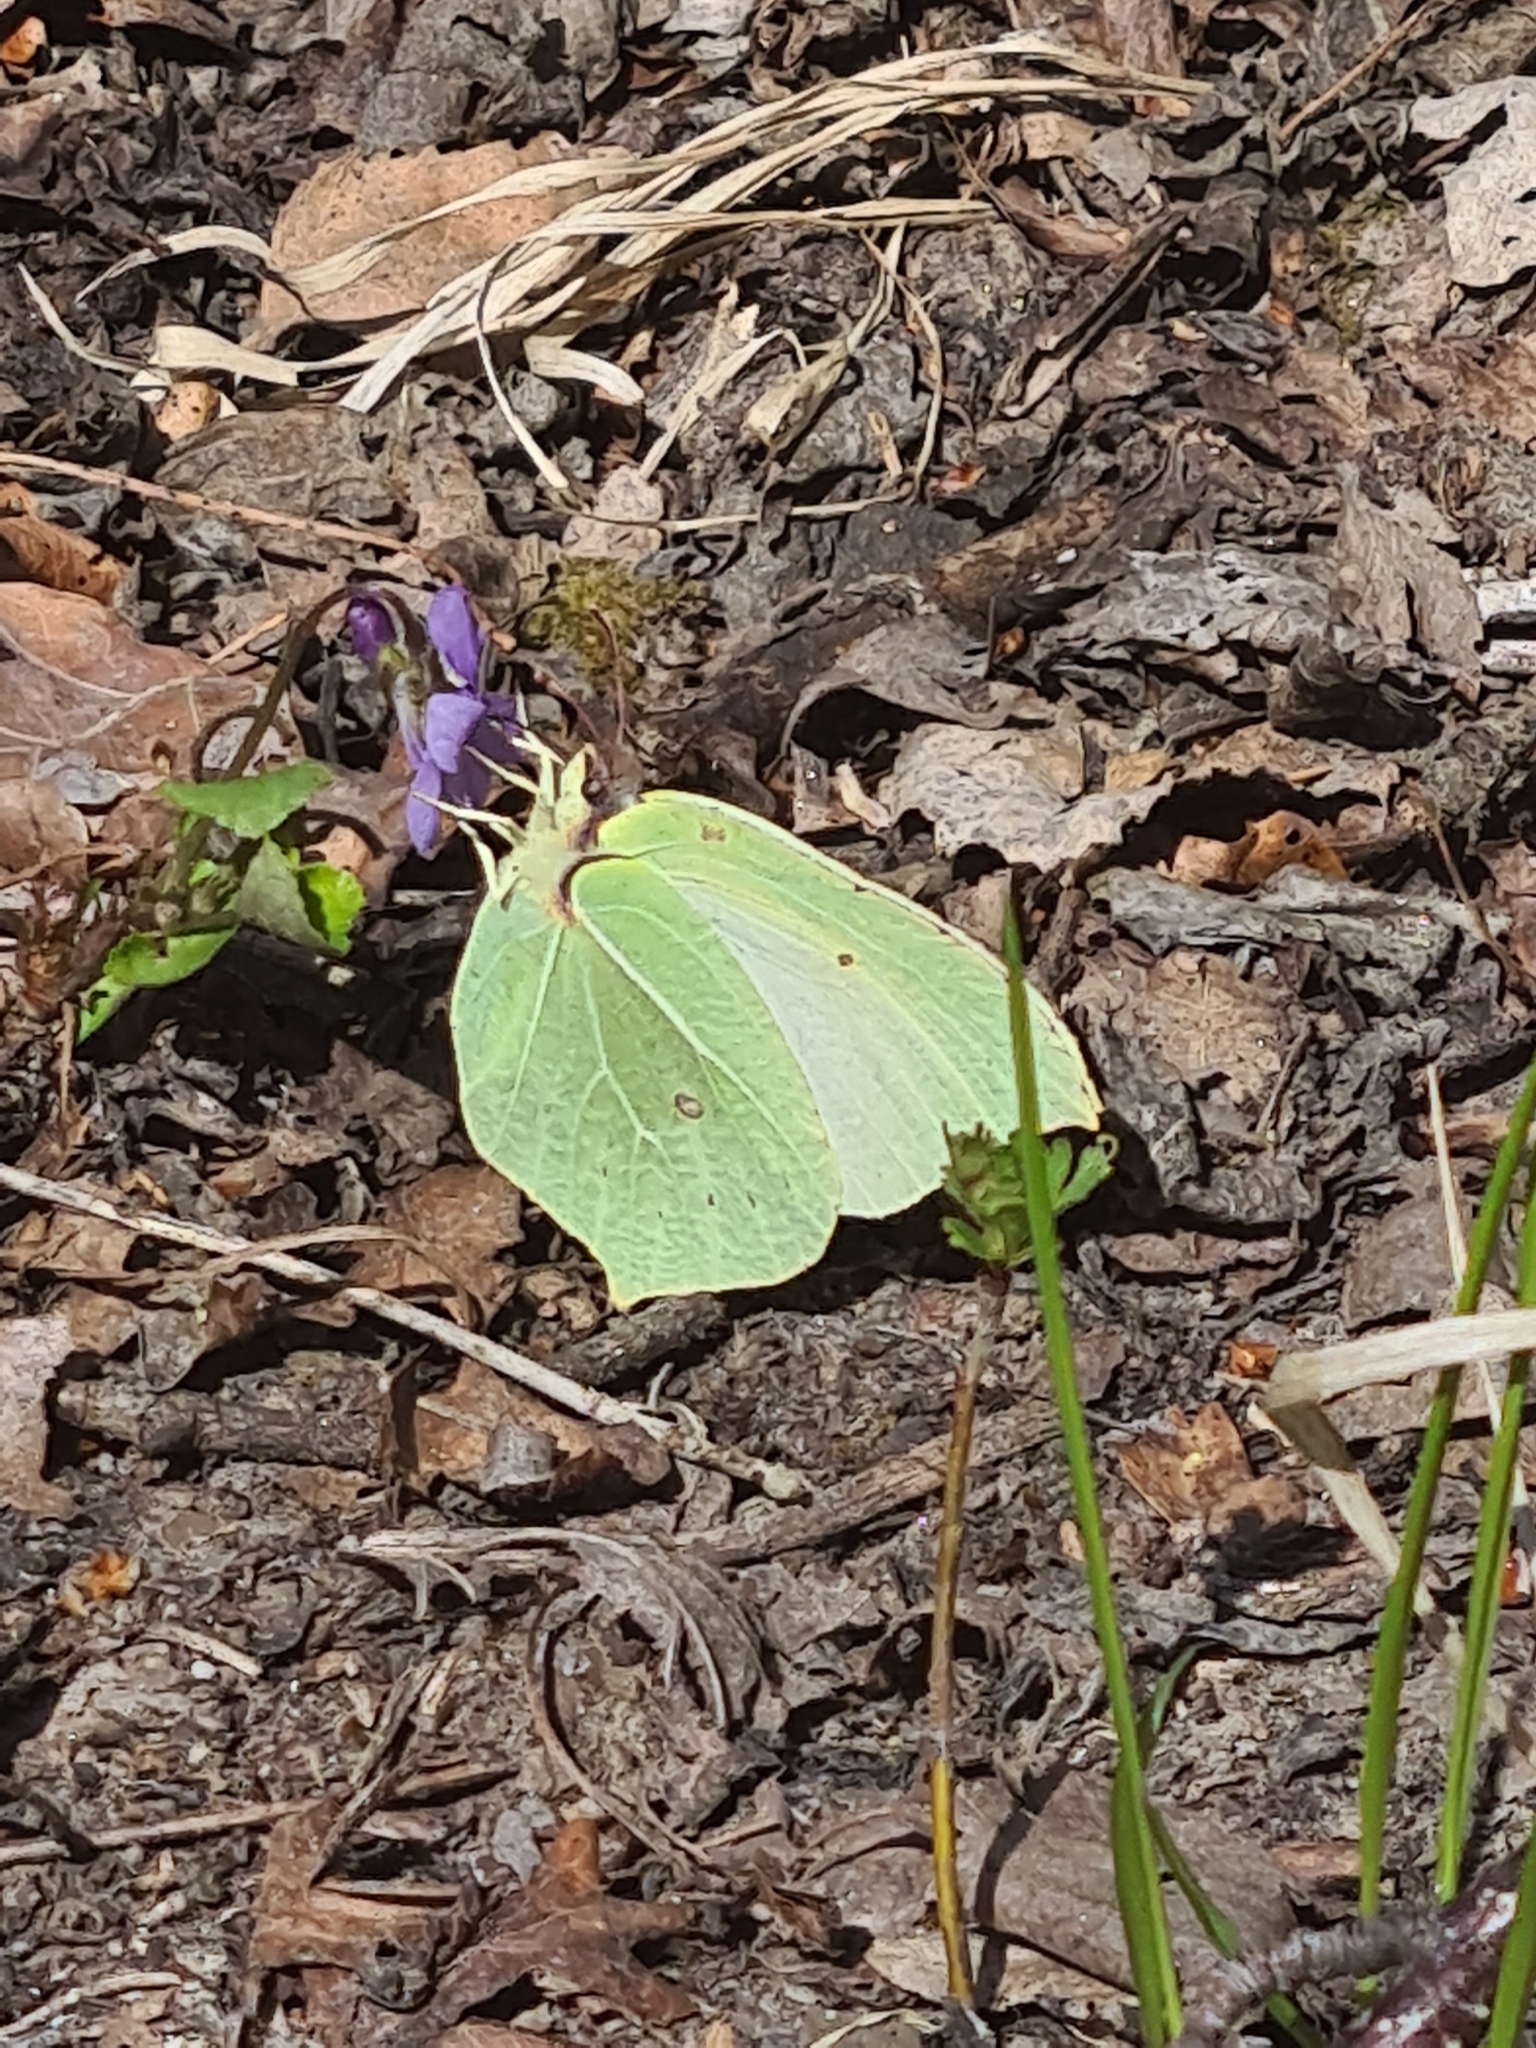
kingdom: Animalia
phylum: Arthropoda
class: Insecta
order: Lepidoptera
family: Pieridae
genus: Gonepteryx
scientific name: Gonepteryx rhamni
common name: Brimstone
